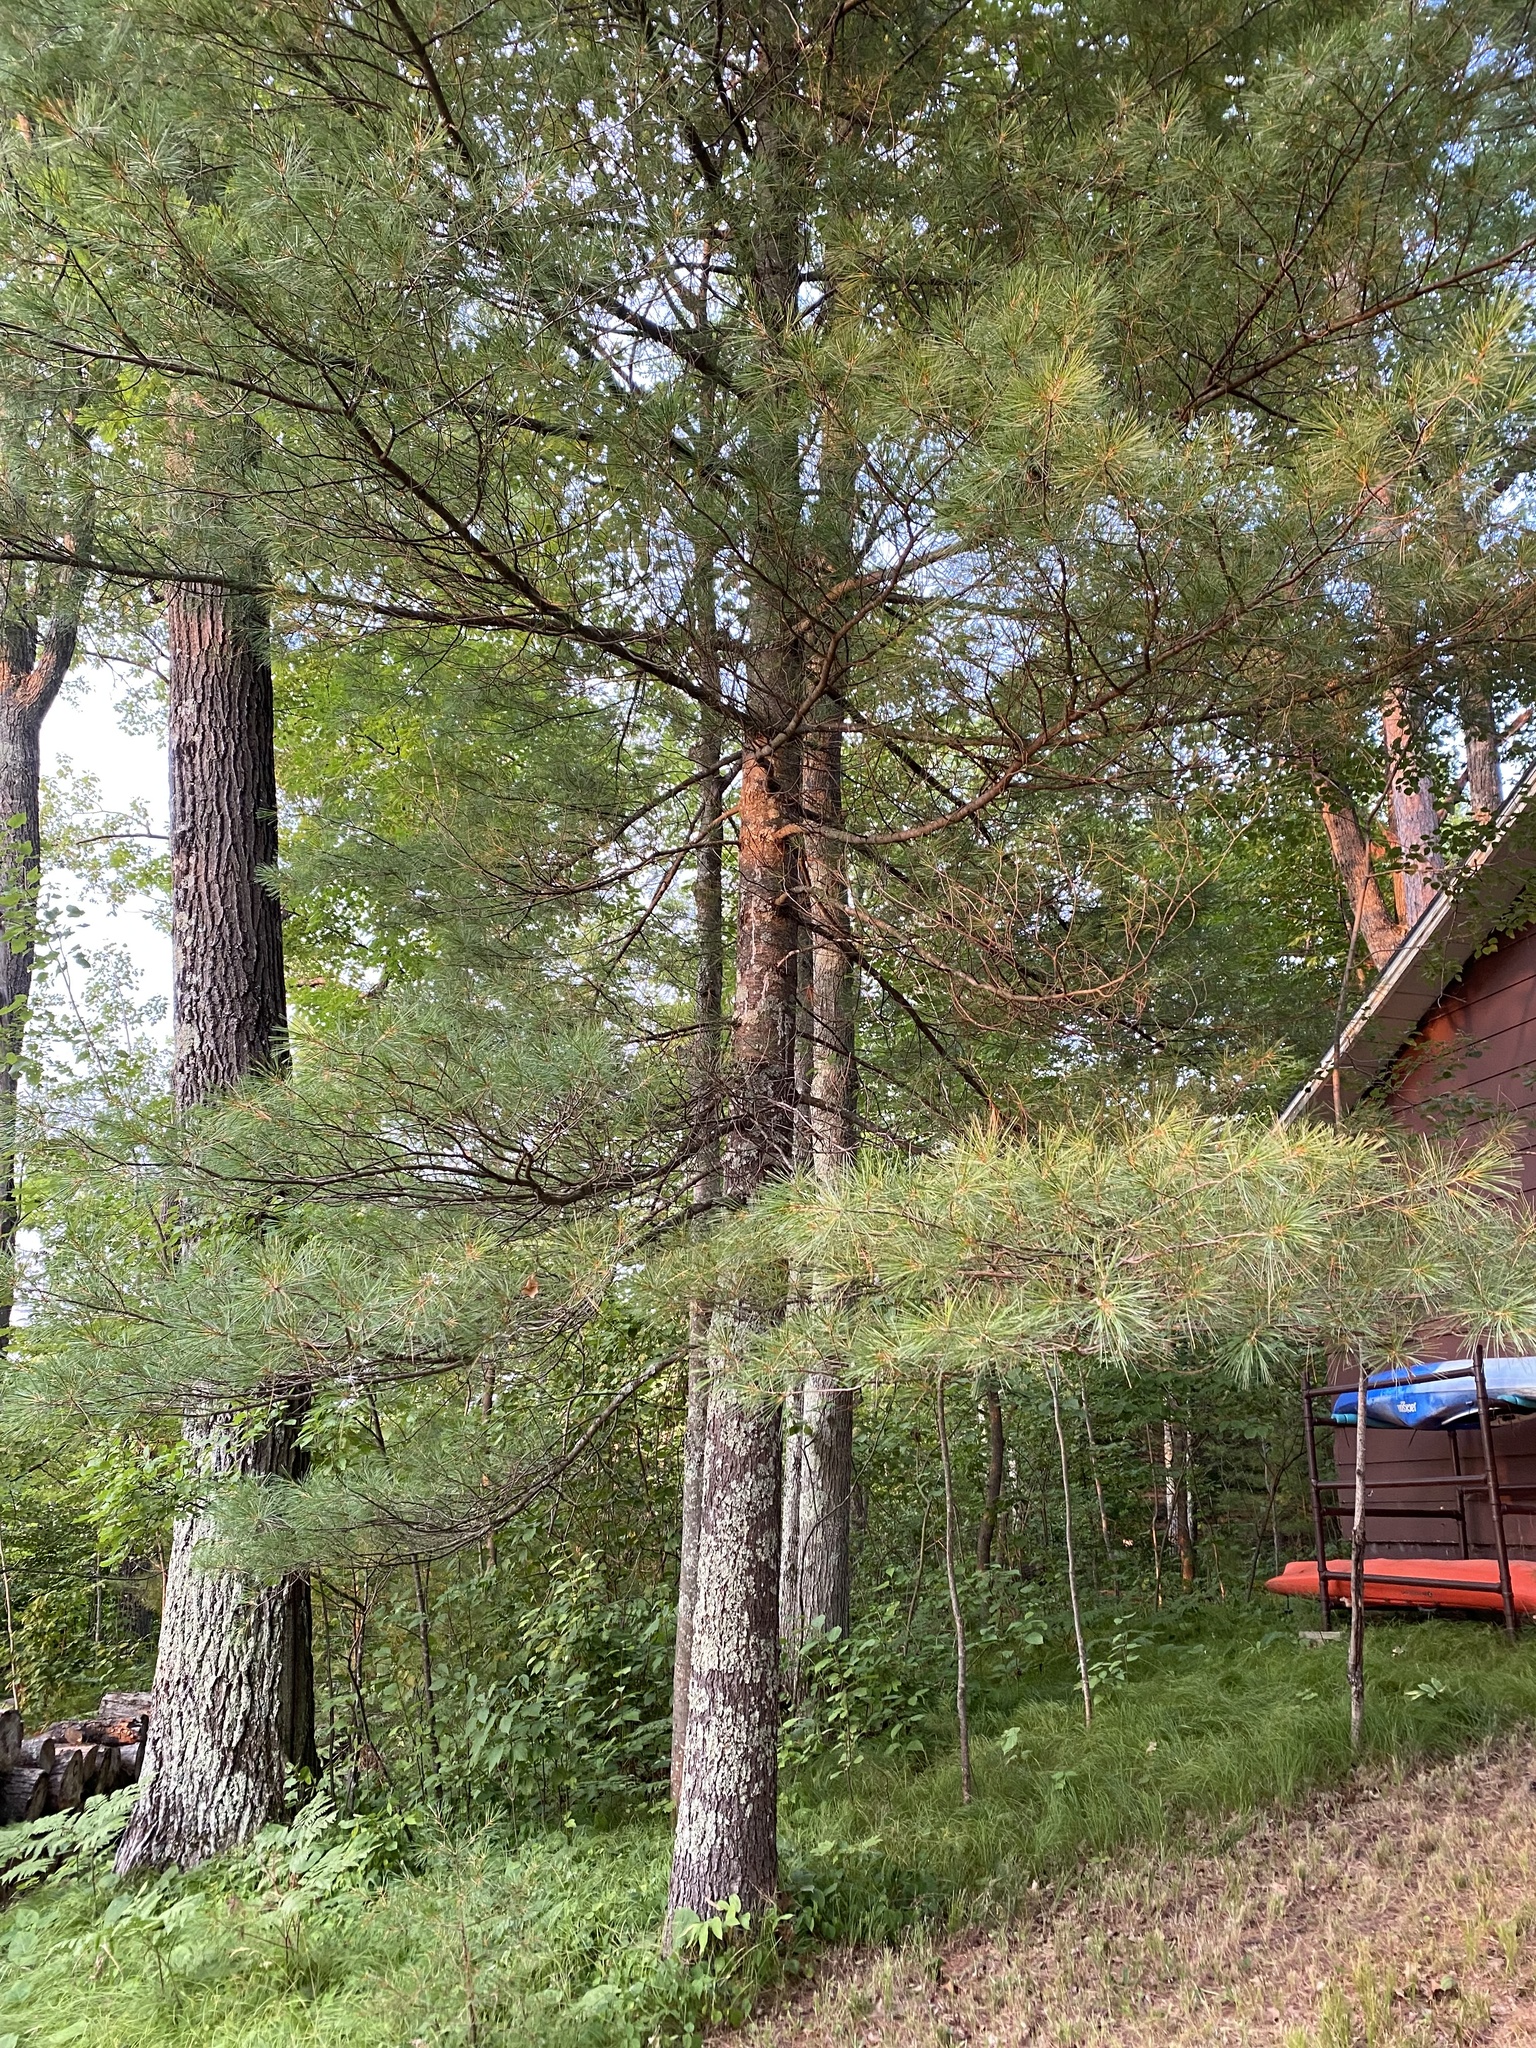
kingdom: Plantae
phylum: Tracheophyta
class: Pinopsida
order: Pinales
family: Pinaceae
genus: Pinus
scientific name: Pinus strobus
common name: Weymouth pine
